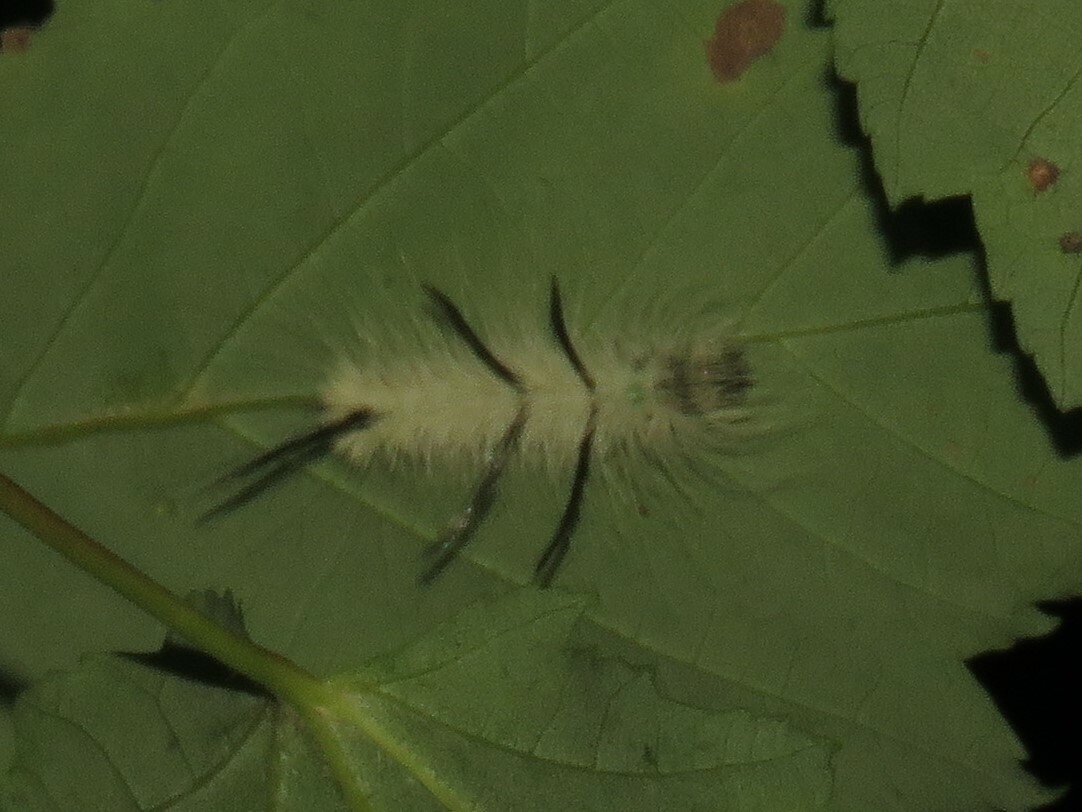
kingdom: Animalia
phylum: Arthropoda
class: Insecta
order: Lepidoptera
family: Noctuidae
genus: Acronicta
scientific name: Acronicta americana
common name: American dagger
